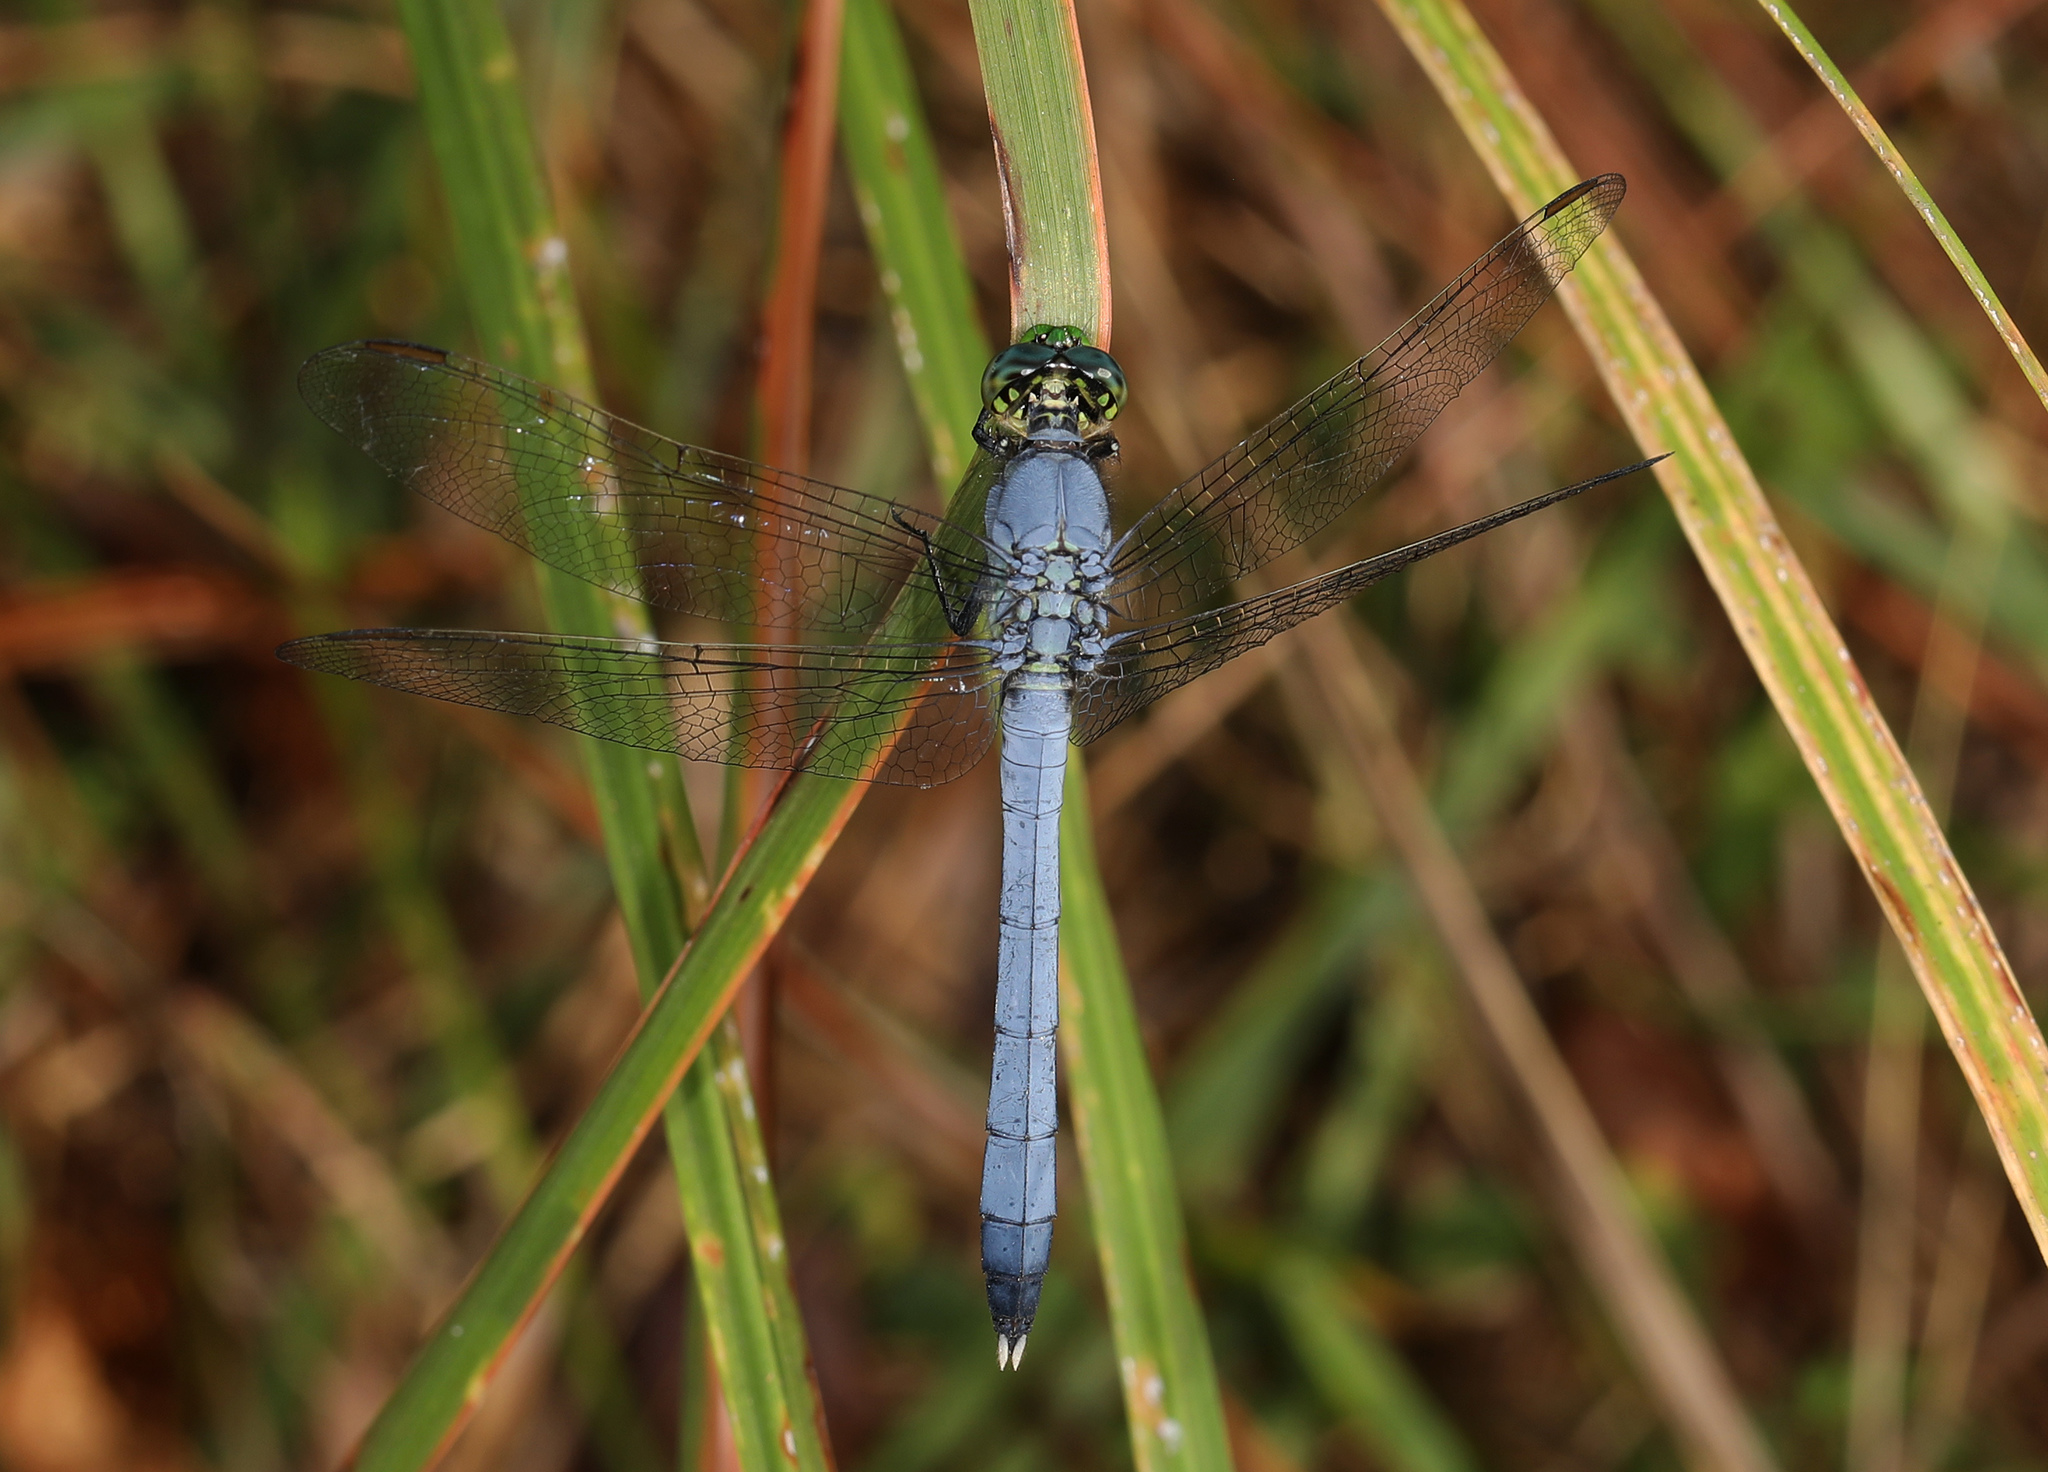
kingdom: Animalia
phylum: Arthropoda
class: Insecta
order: Odonata
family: Libellulidae
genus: Erythemis
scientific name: Erythemis simplicicollis
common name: Eastern pondhawk
